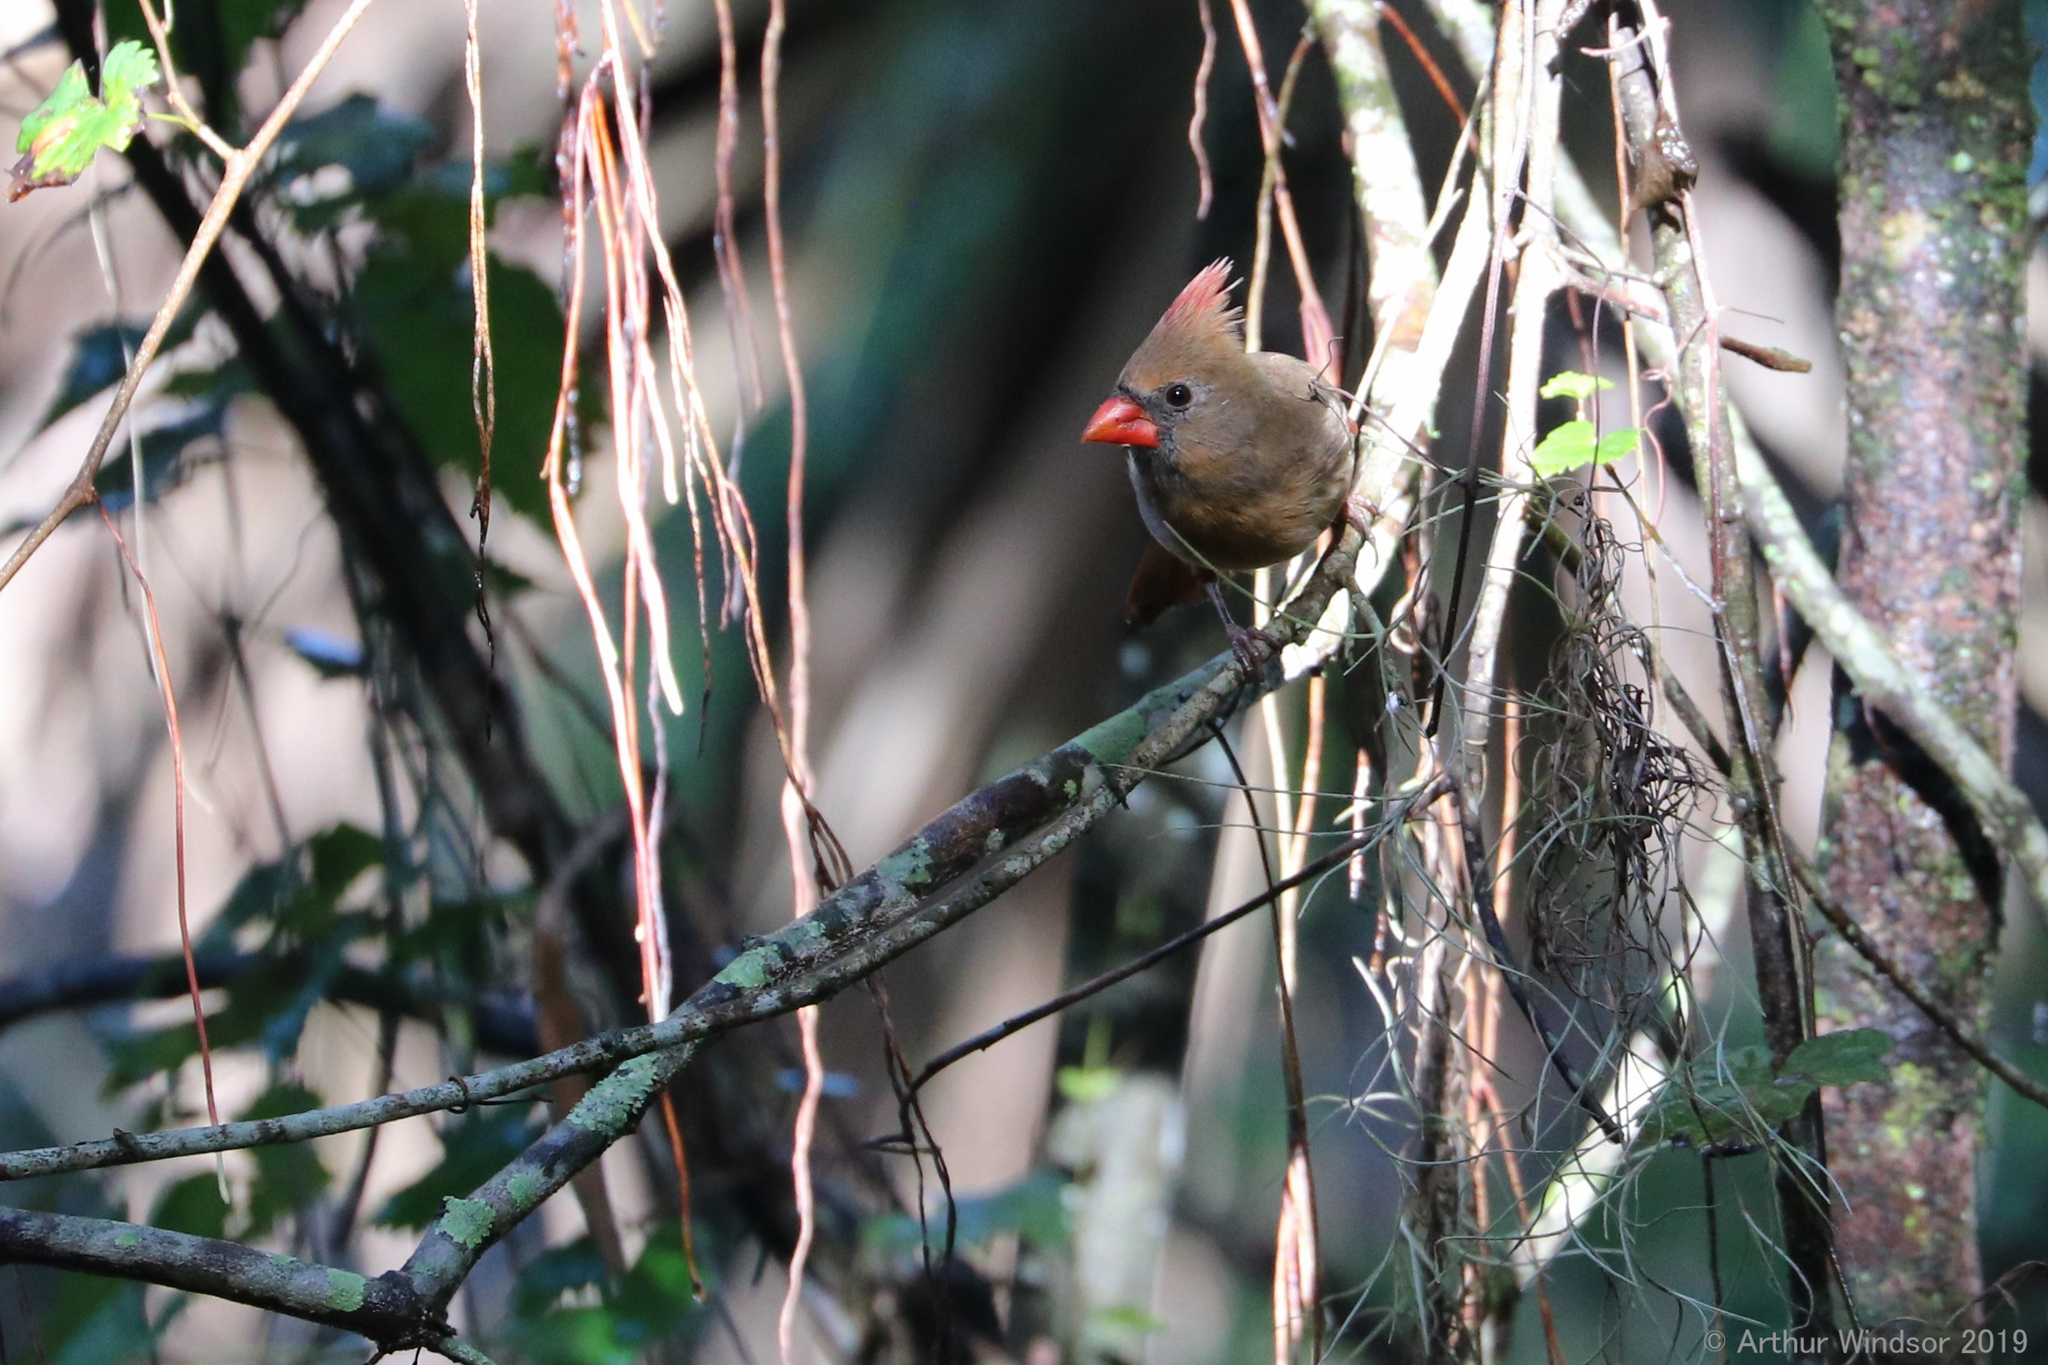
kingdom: Animalia
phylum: Chordata
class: Aves
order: Passeriformes
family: Cardinalidae
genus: Cardinalis
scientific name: Cardinalis cardinalis
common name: Northern cardinal
